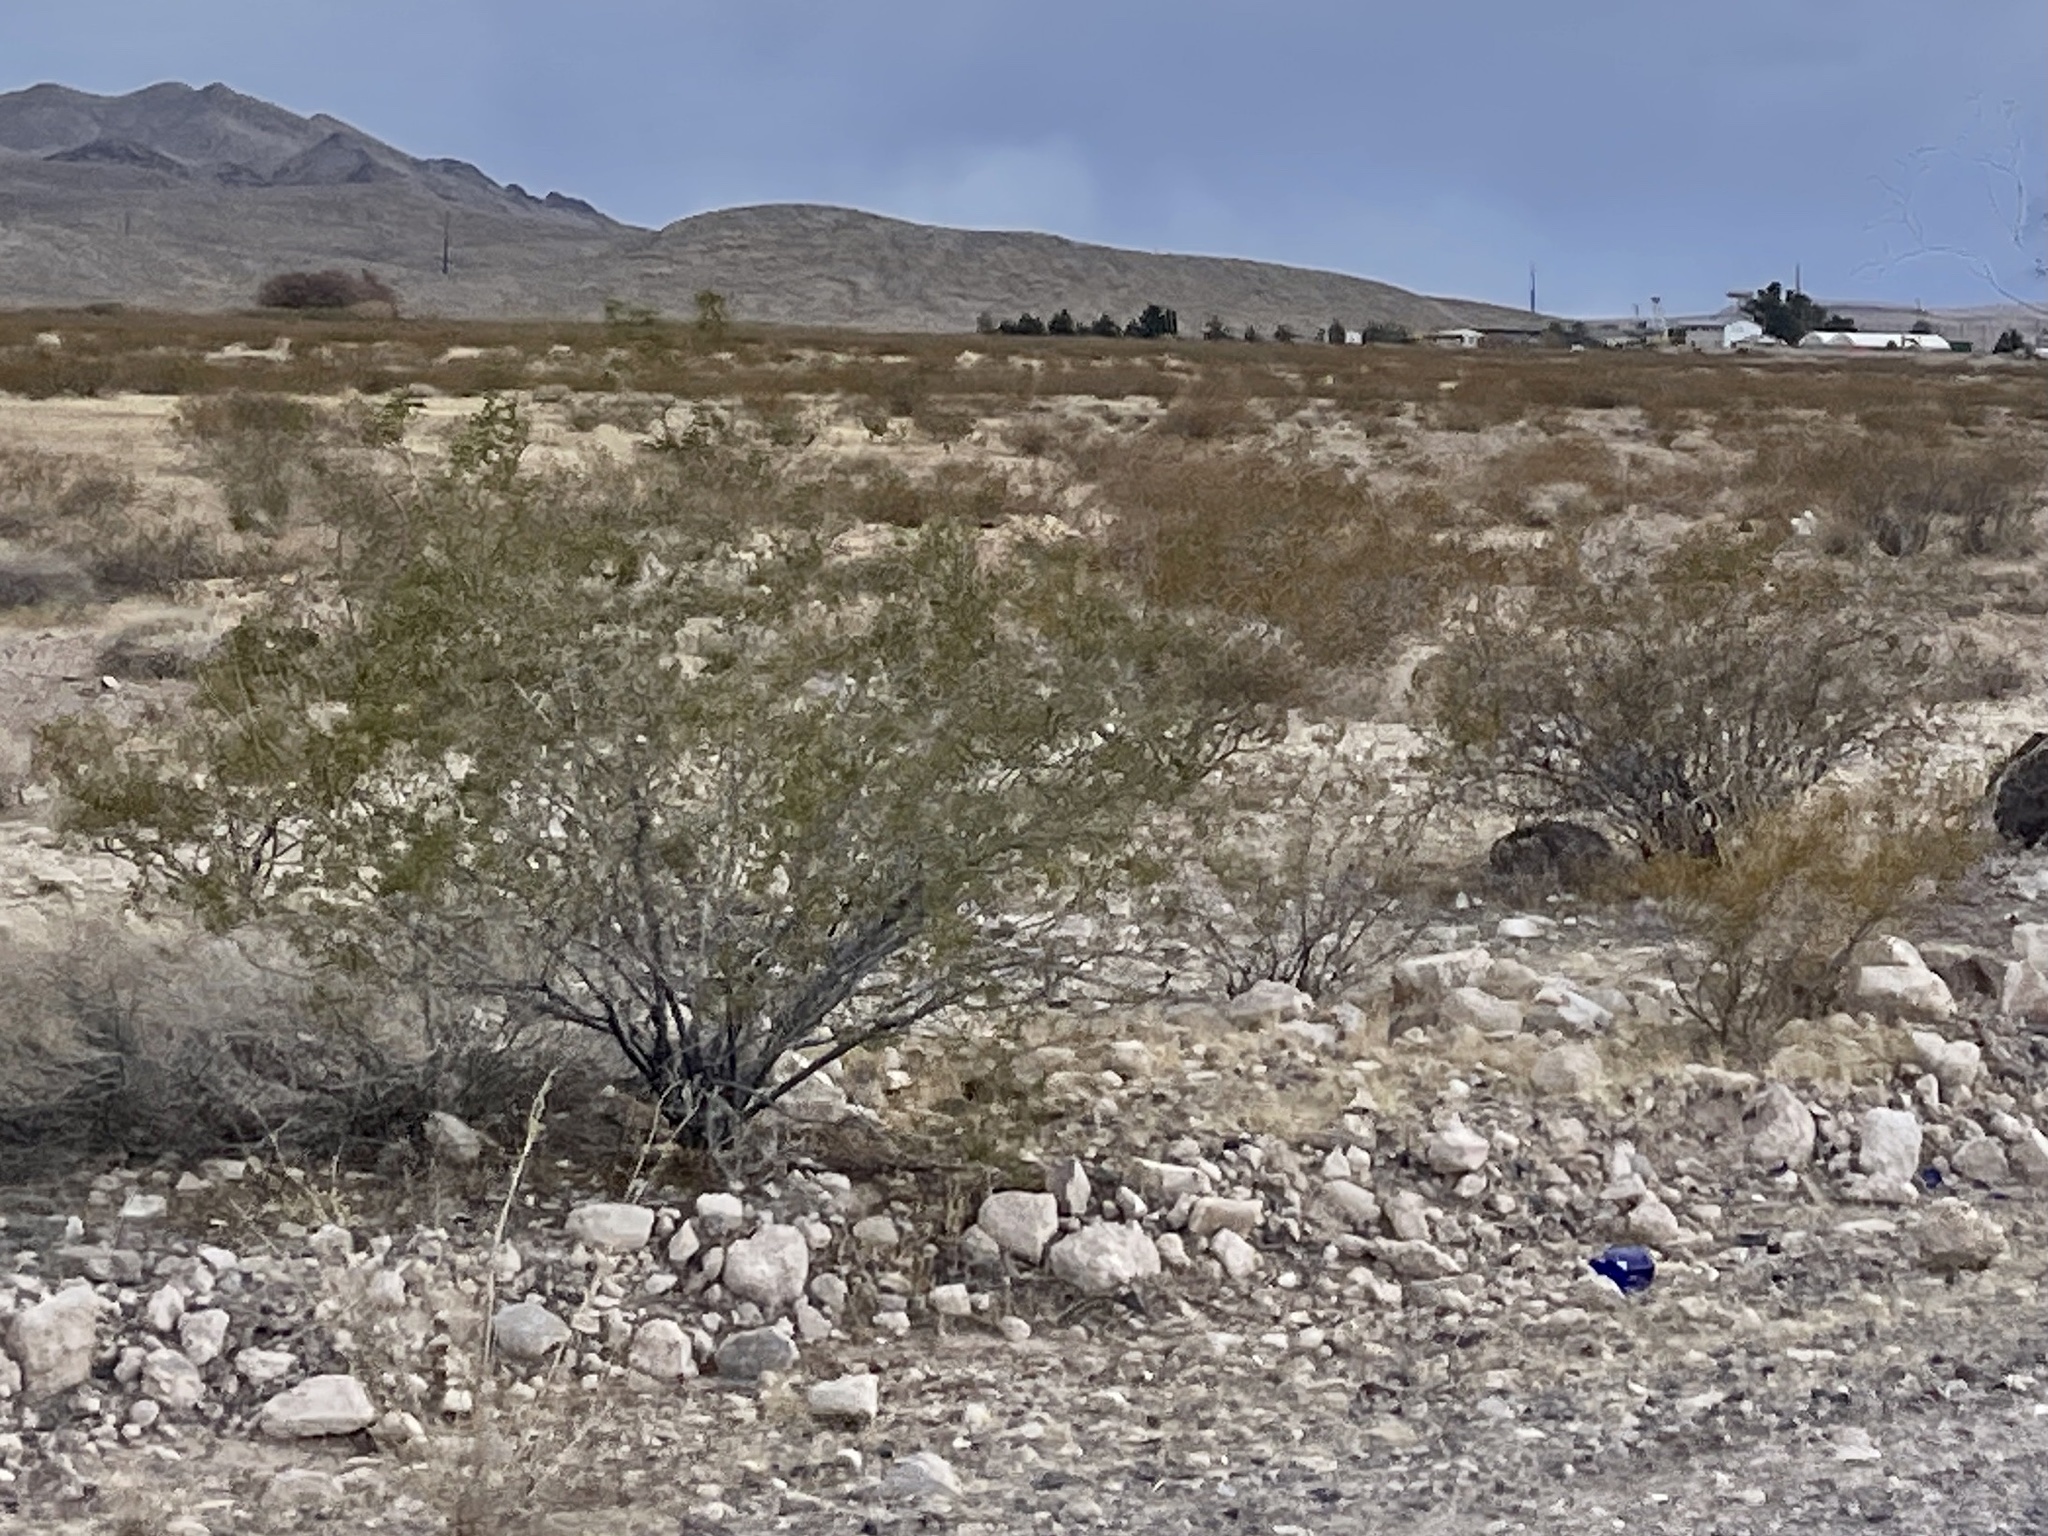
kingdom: Plantae
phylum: Tracheophyta
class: Magnoliopsida
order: Zygophyllales
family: Zygophyllaceae
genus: Larrea
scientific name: Larrea tridentata
